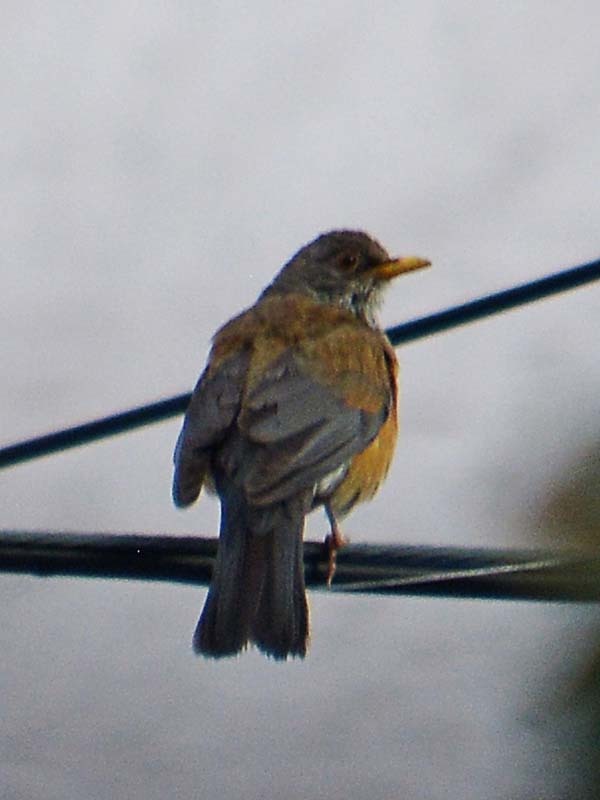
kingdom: Animalia
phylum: Chordata
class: Aves
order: Passeriformes
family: Turdidae
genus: Turdus
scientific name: Turdus rufopalliatus
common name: Rufous-backed robin
